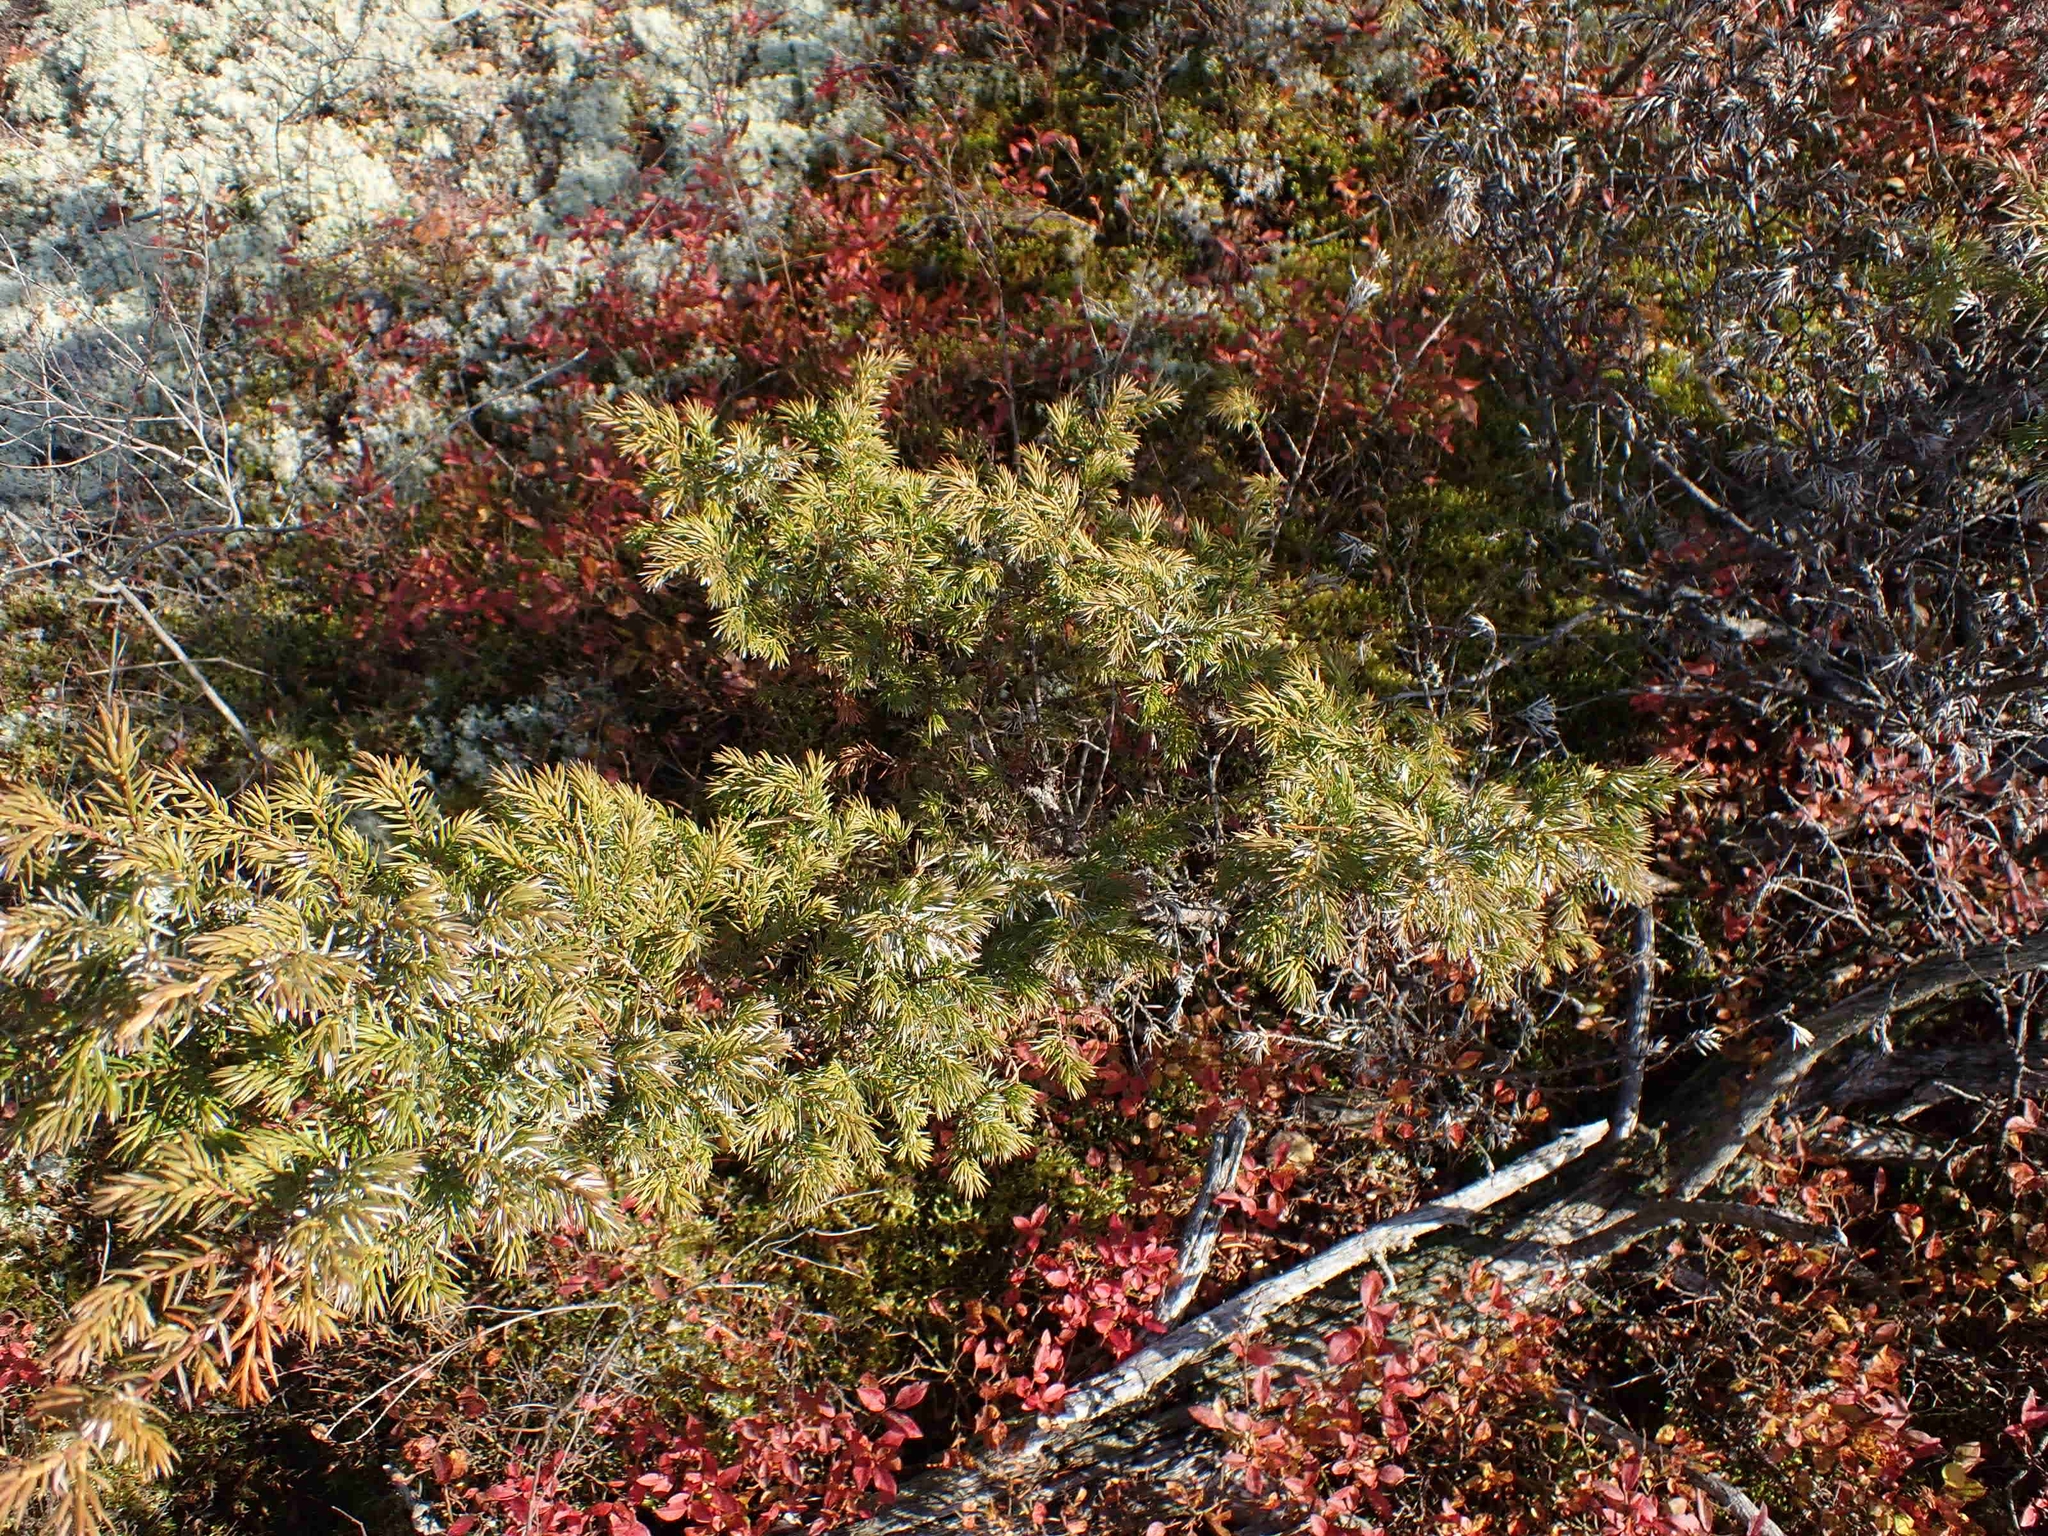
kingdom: Plantae
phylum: Tracheophyta
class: Pinopsida
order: Pinales
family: Cupressaceae
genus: Juniperus
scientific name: Juniperus communis
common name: Common juniper
